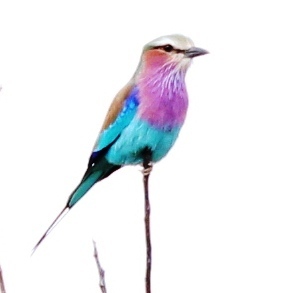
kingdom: Animalia
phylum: Chordata
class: Aves
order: Coraciiformes
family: Coraciidae
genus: Coracias
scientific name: Coracias caudatus
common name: Lilac-breasted roller
